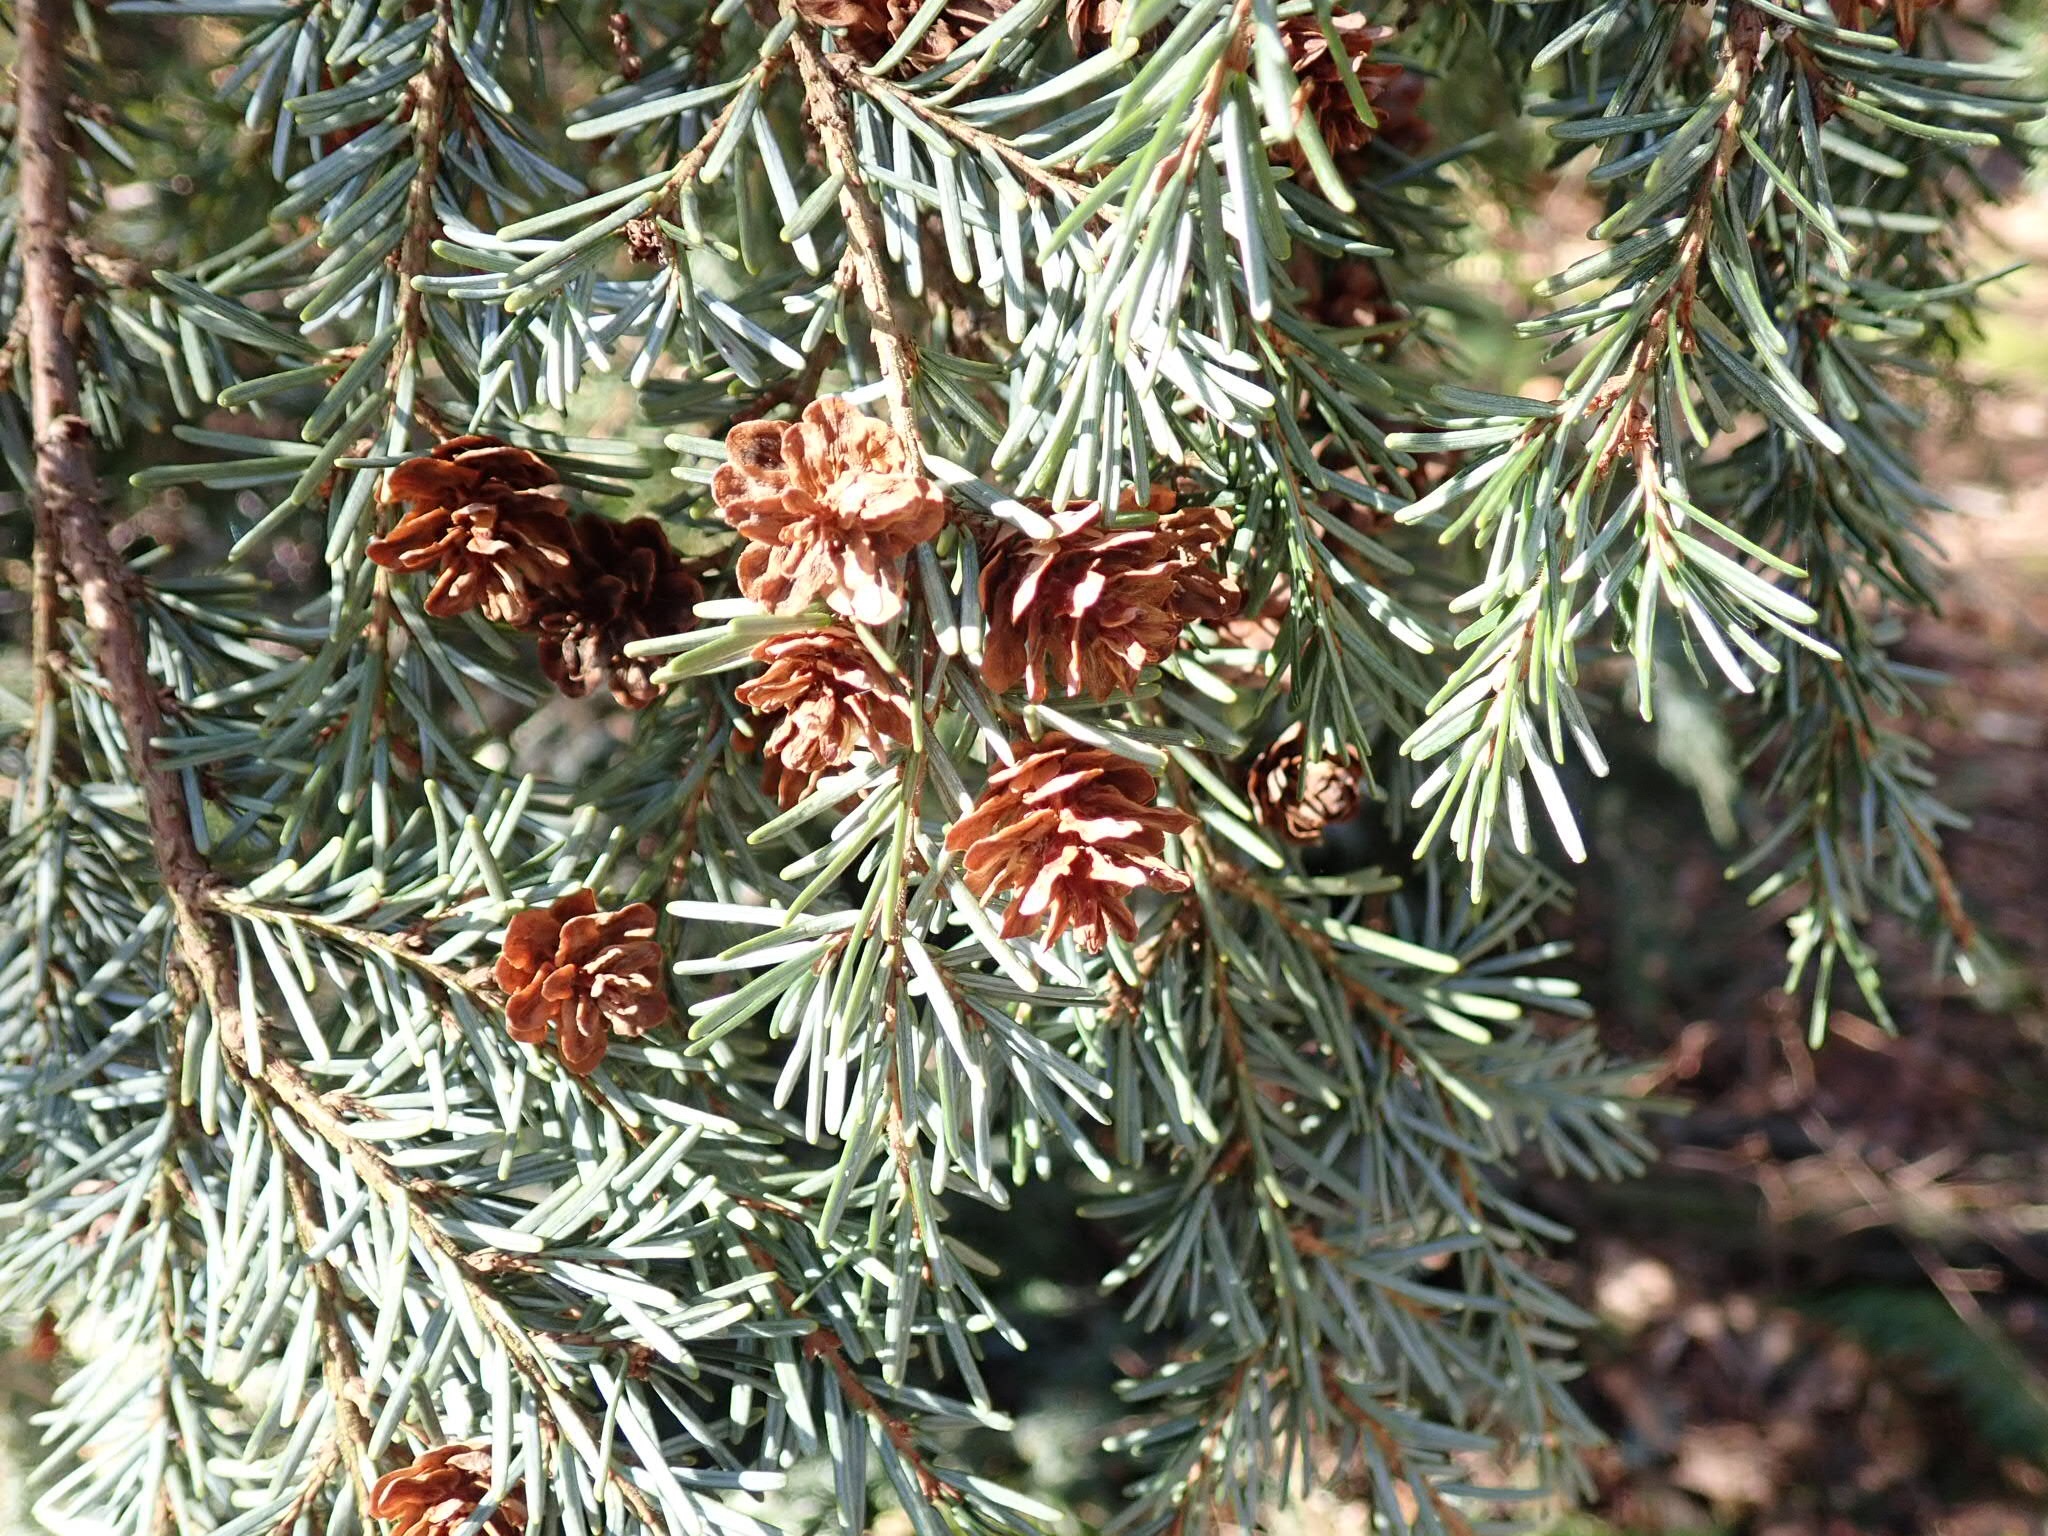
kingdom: Plantae
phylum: Tracheophyta
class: Pinopsida
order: Pinales
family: Pinaceae
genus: Tsuga
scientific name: Tsuga heterophylla
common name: Western hemlock
